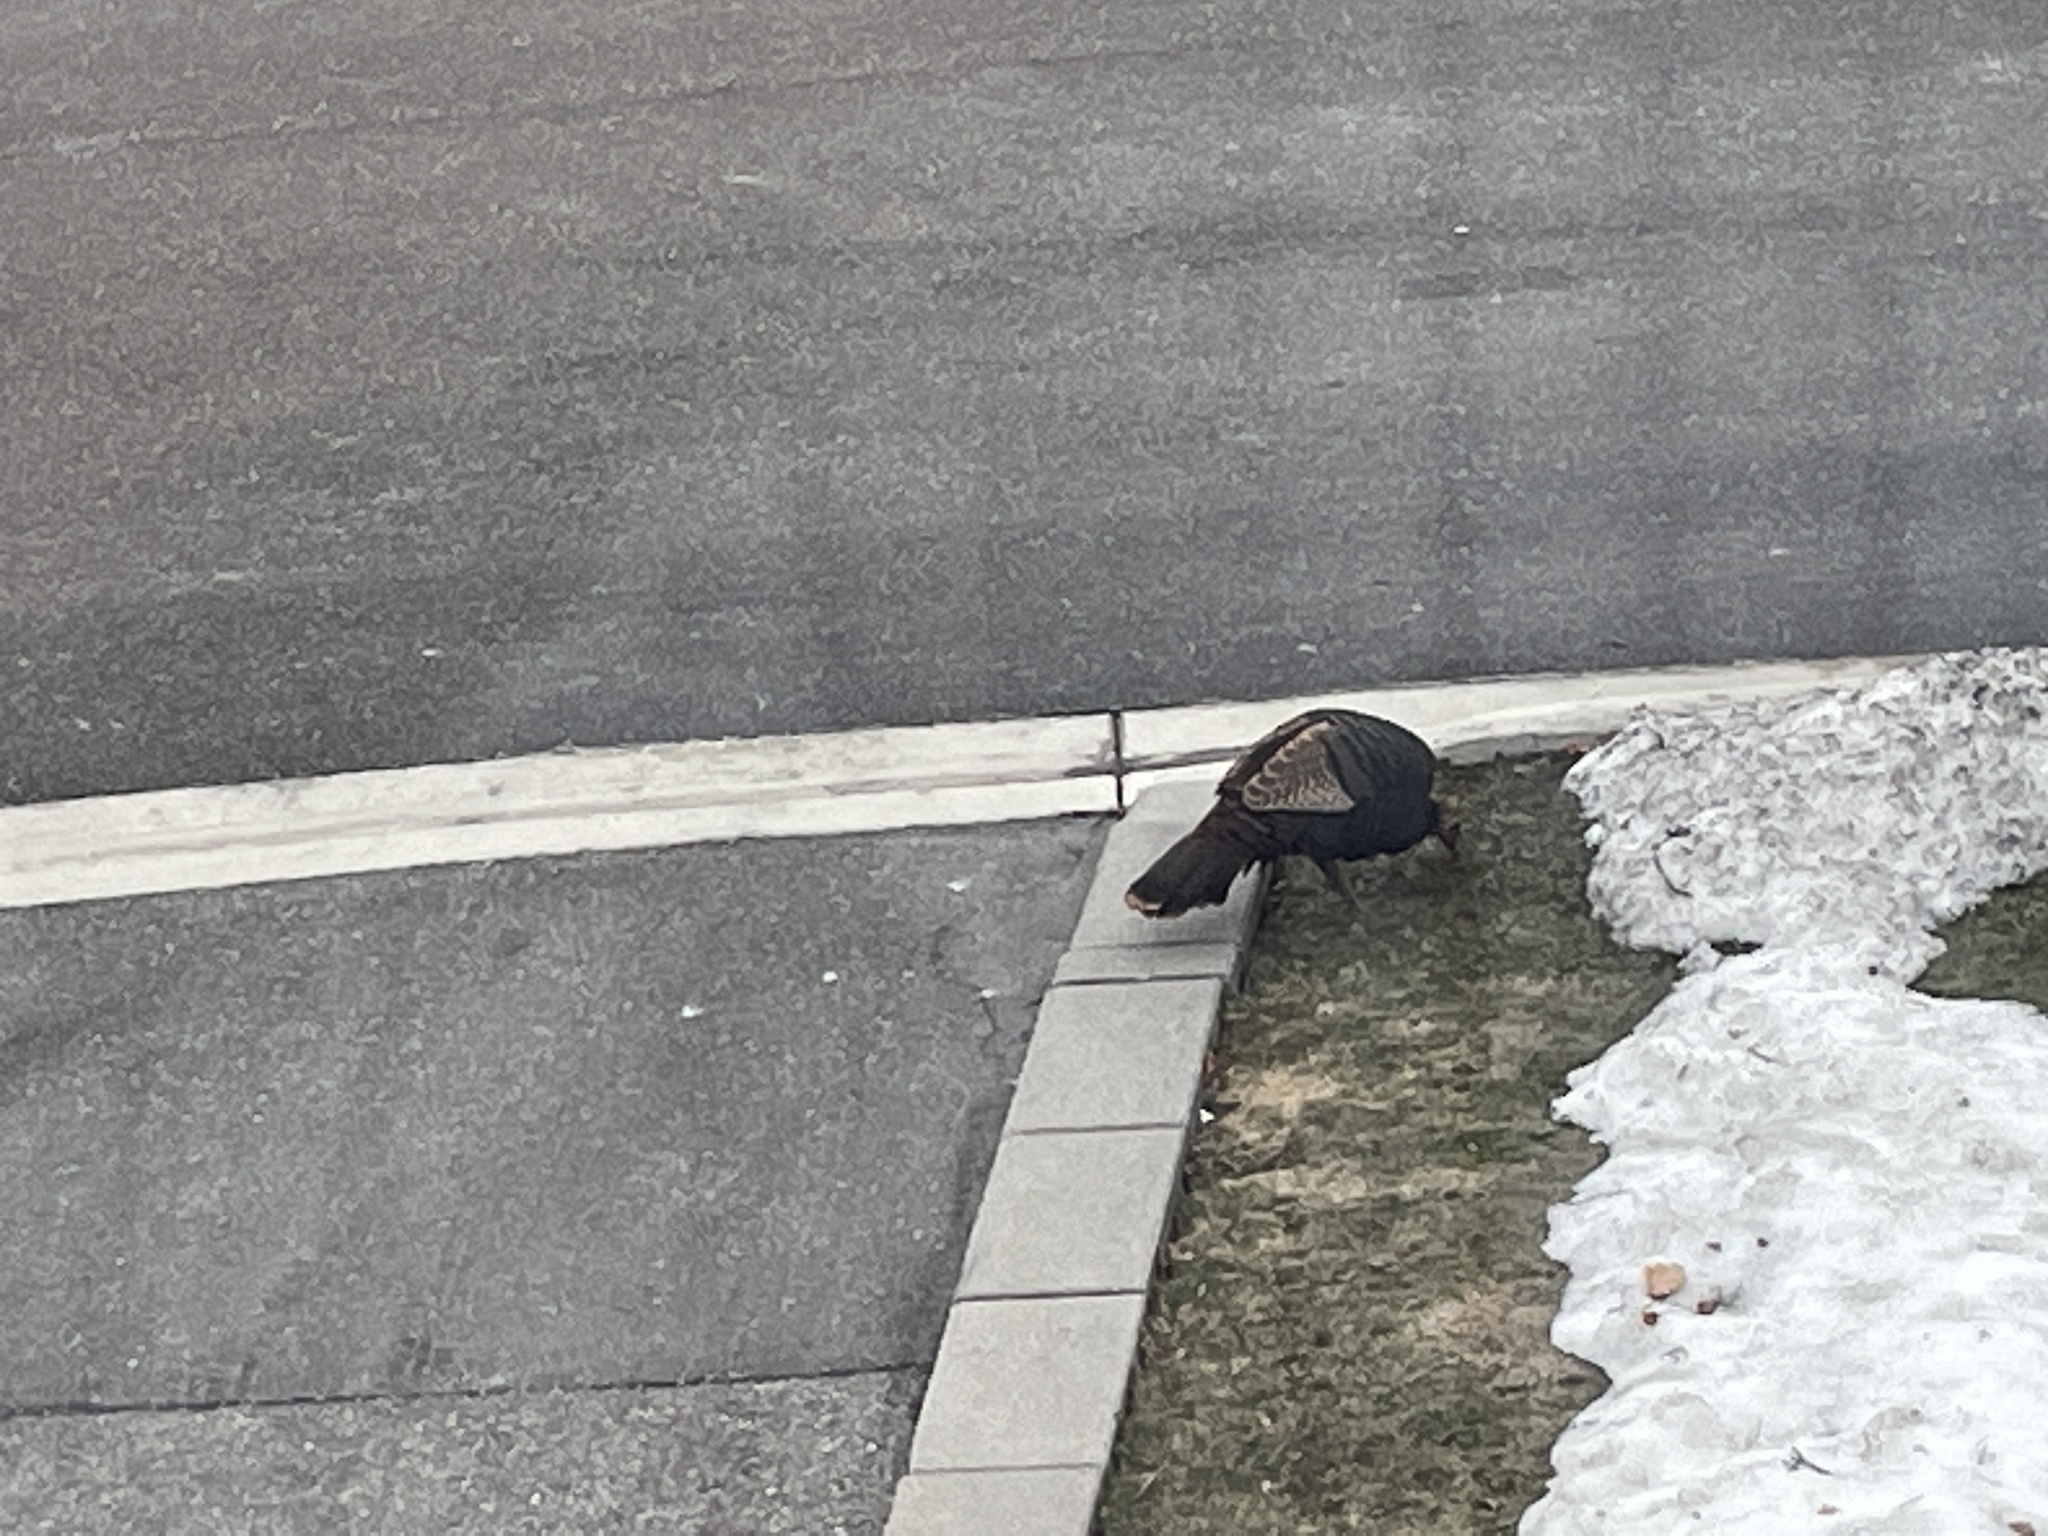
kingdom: Animalia
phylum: Chordata
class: Aves
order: Galliformes
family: Phasianidae
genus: Meleagris
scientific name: Meleagris gallopavo
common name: Wild turkey
